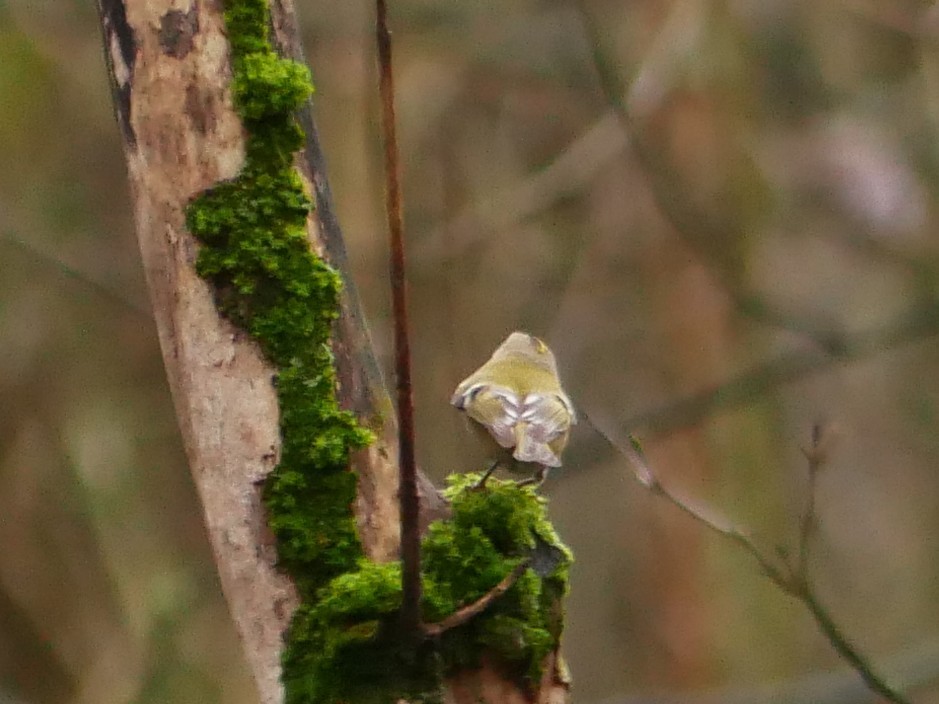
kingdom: Animalia
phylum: Chordata
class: Aves
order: Passeriformes
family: Regulidae
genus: Regulus
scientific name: Regulus regulus
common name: Goldcrest
